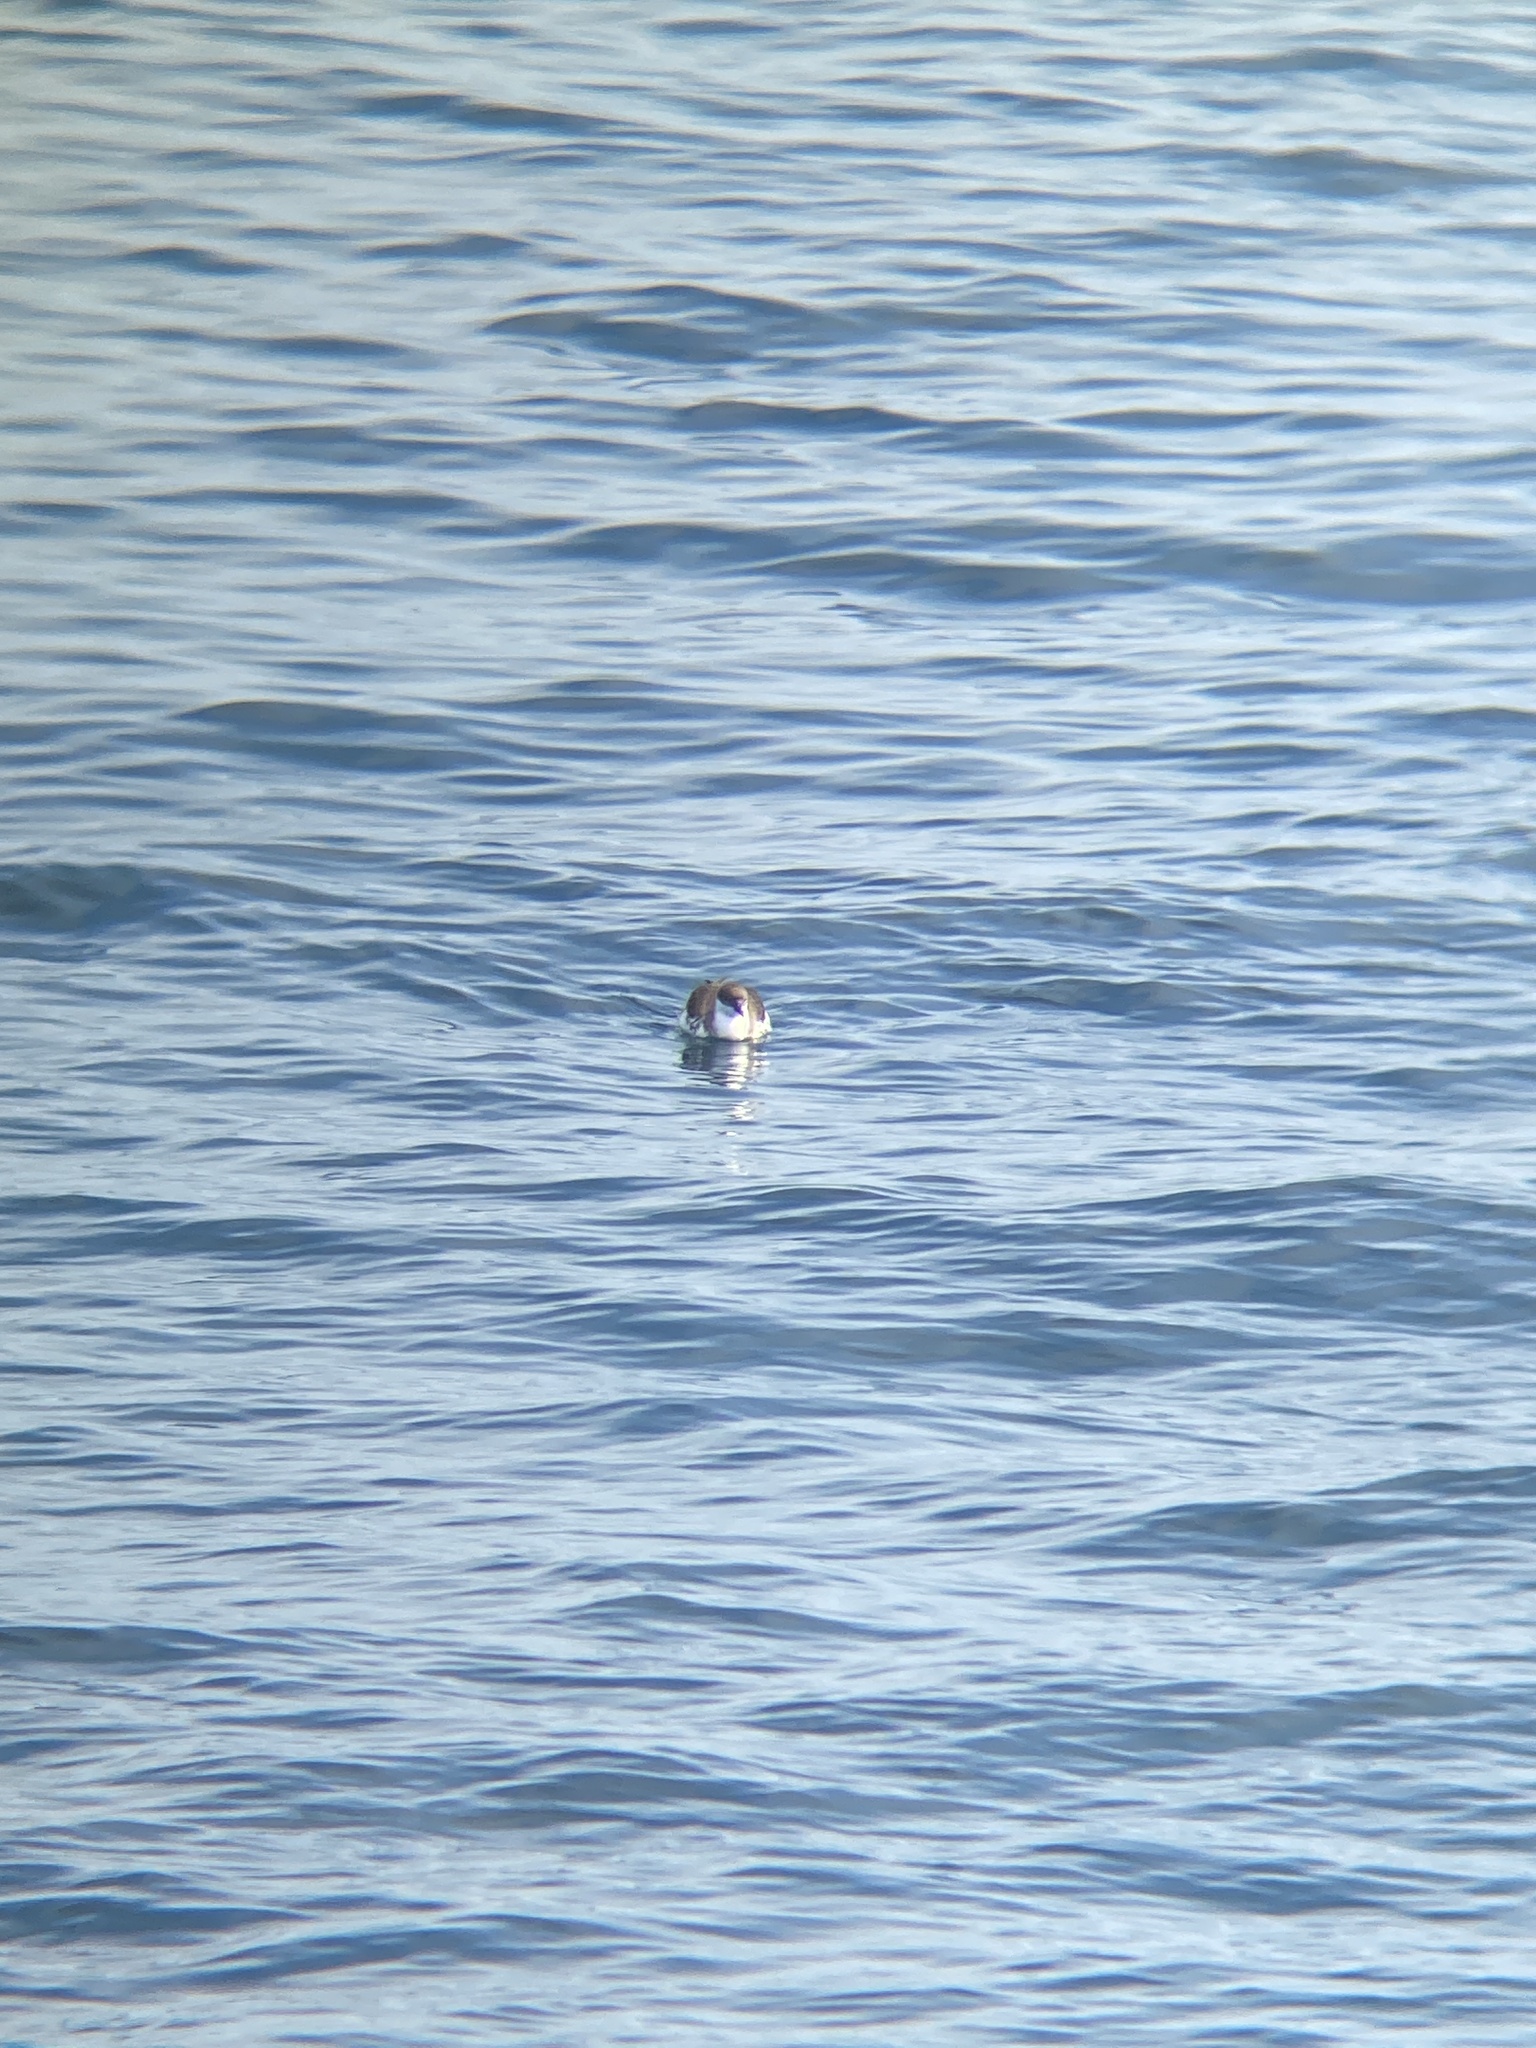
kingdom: Animalia
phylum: Chordata
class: Aves
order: Procellariiformes
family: Procellariidae
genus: Puffinus
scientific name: Puffinus gravis
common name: Great shearwater
